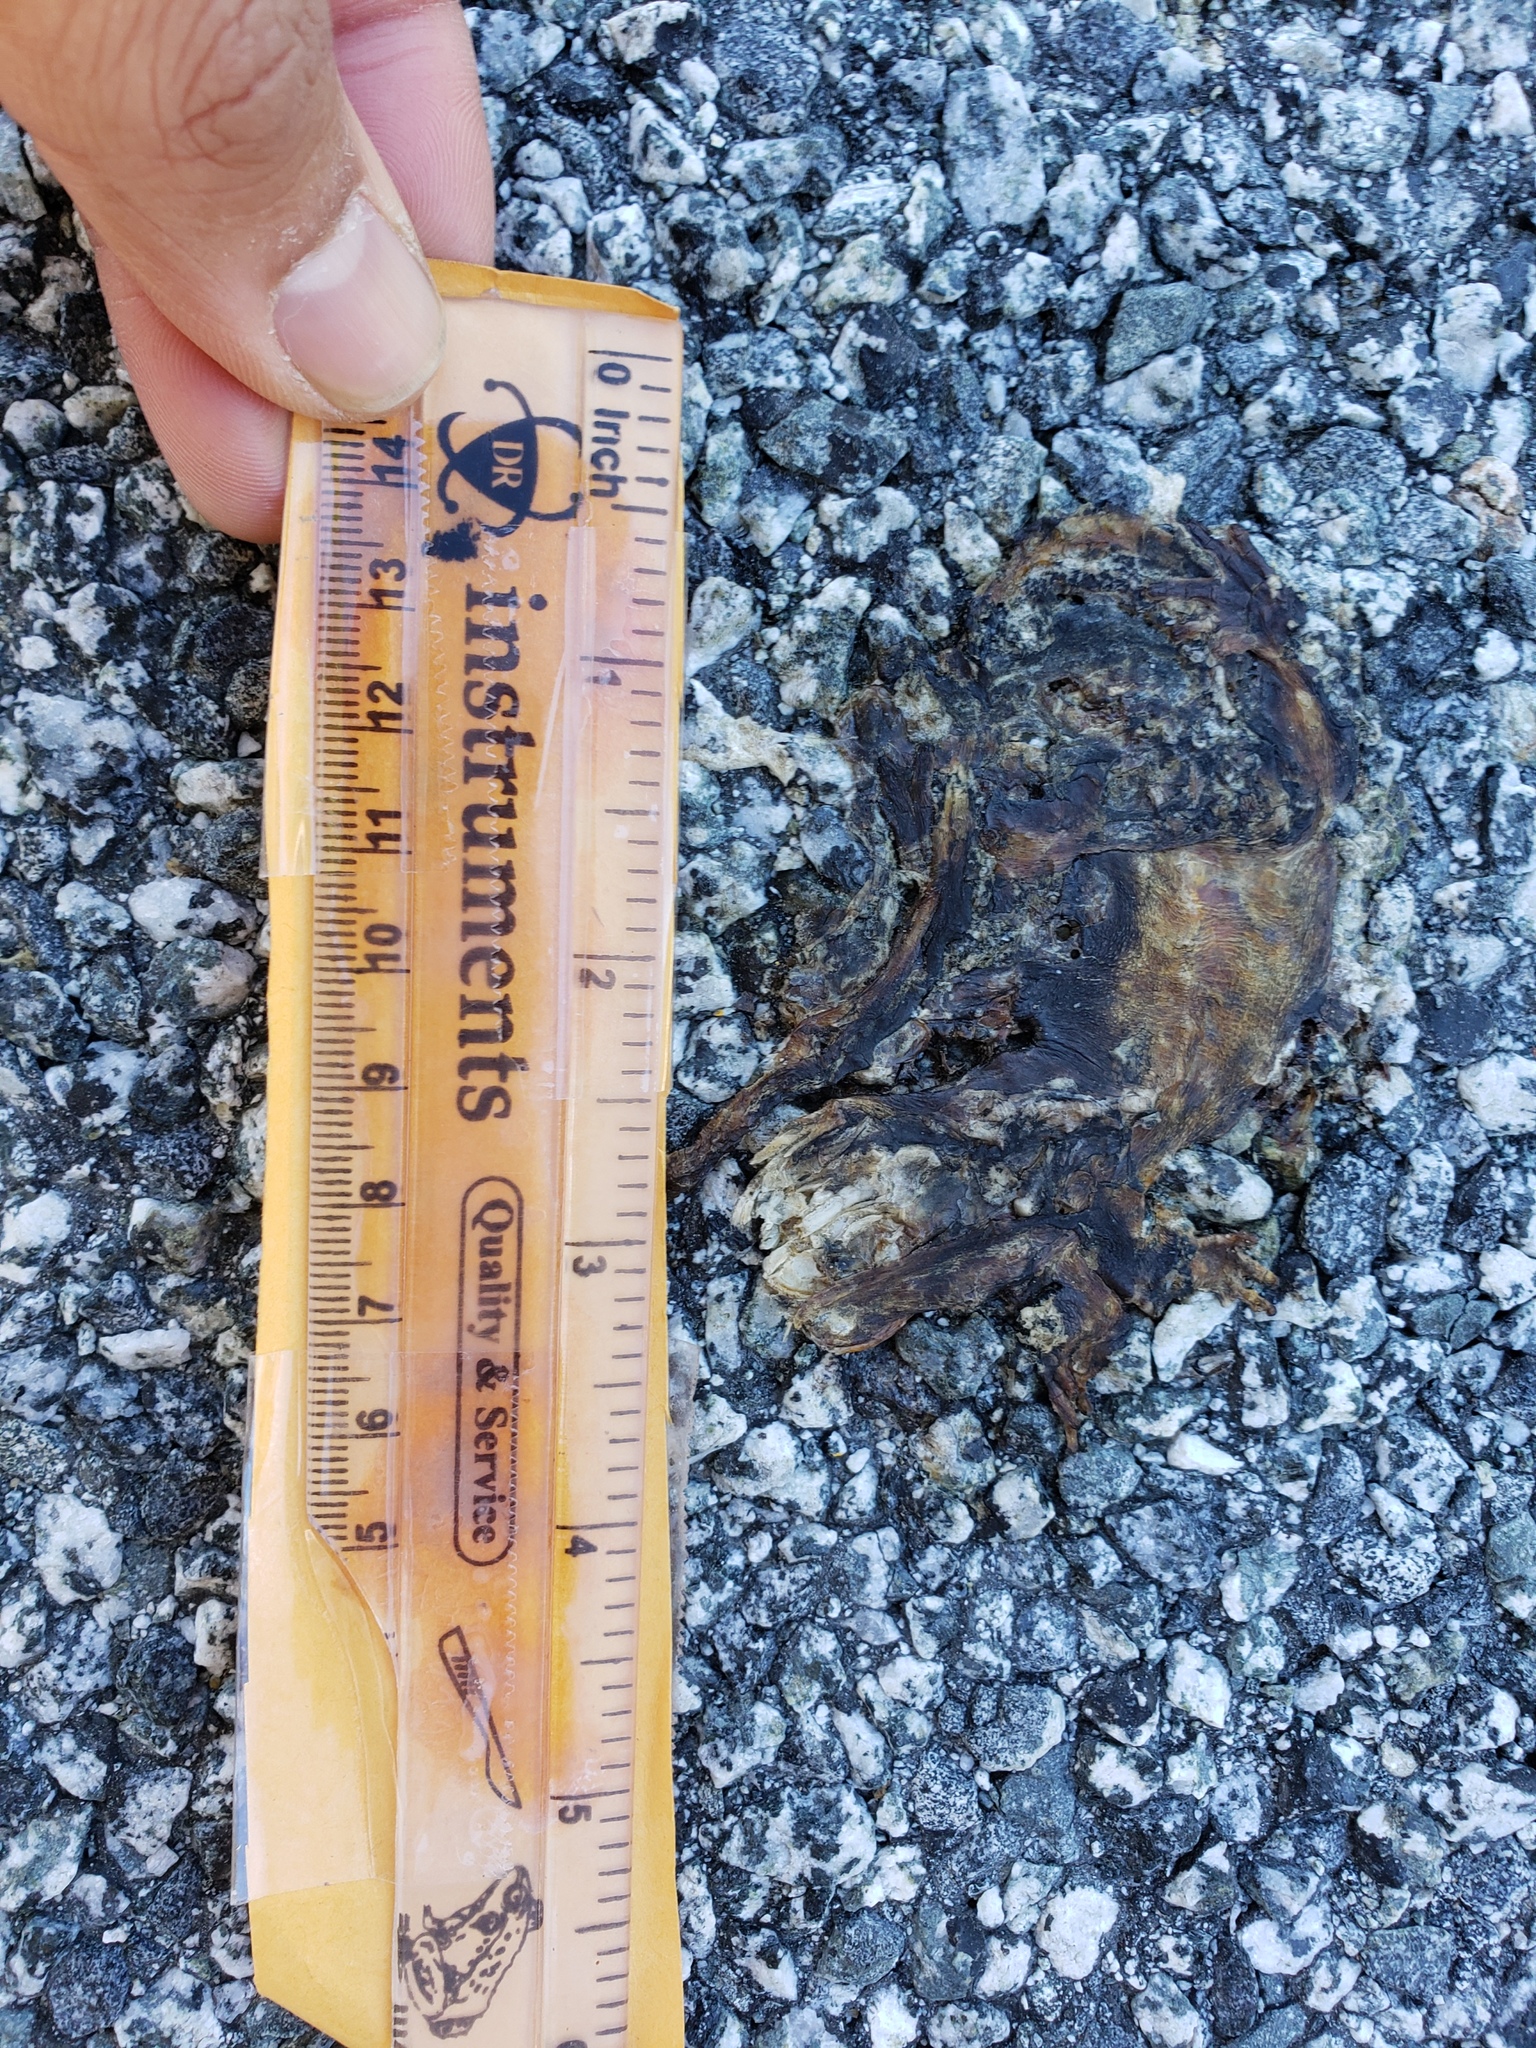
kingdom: Animalia
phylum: Chordata
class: Amphibia
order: Caudata
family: Salamandridae
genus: Taricha
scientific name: Taricha
